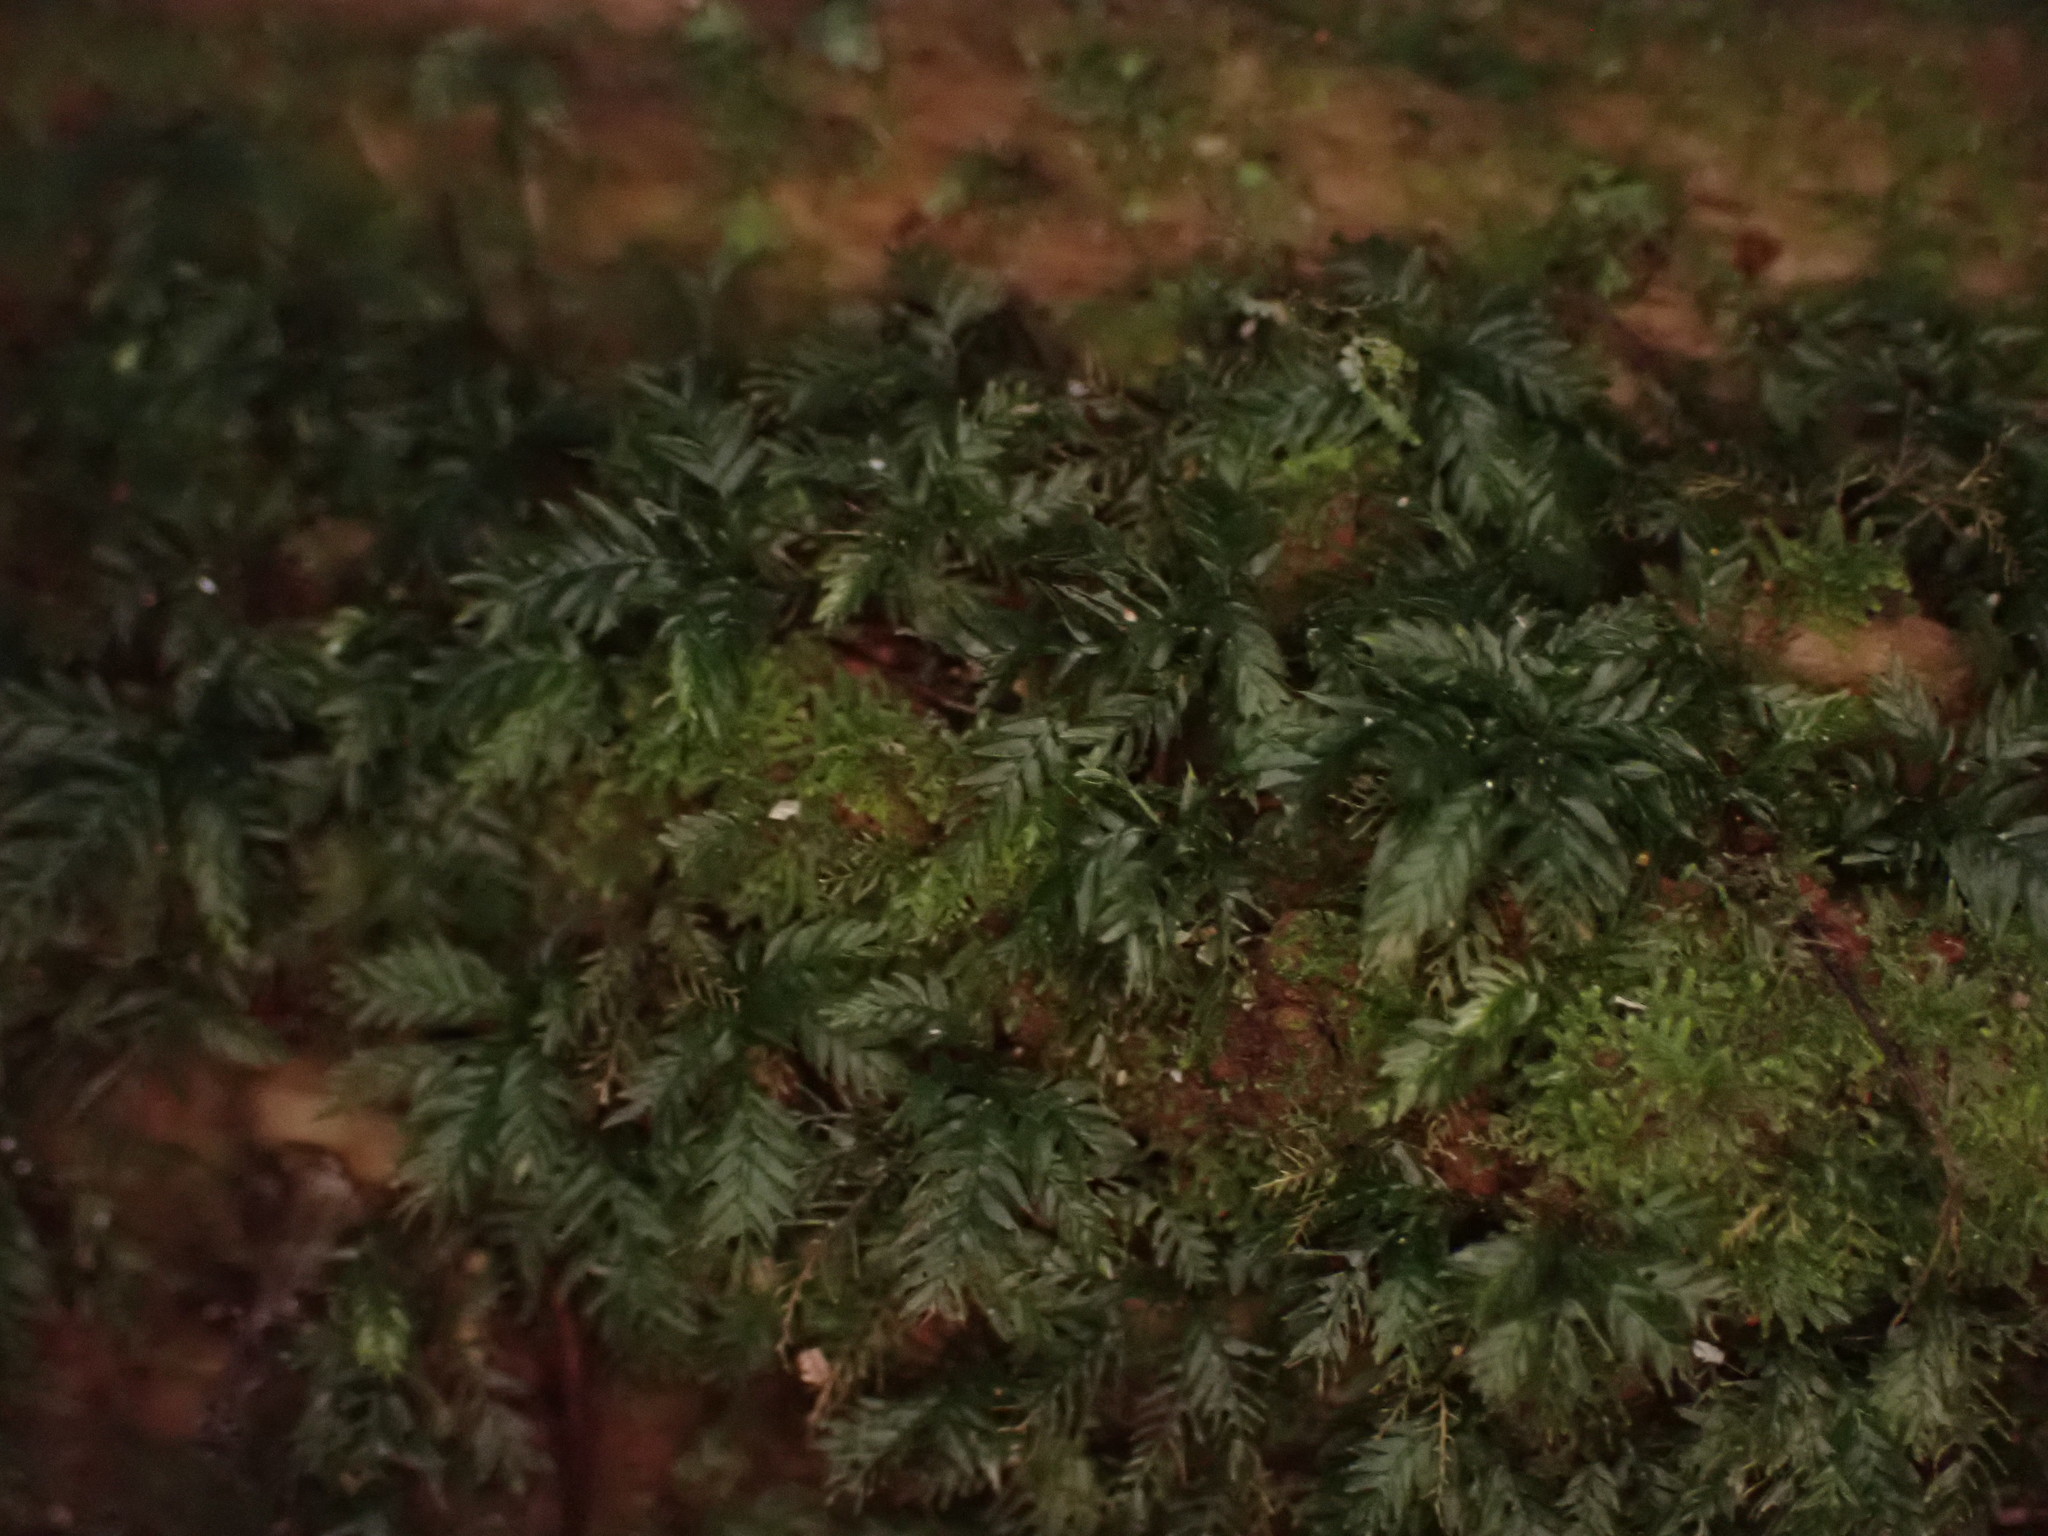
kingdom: Plantae
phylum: Bryophyta
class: Bryopsida
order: Aulacomniales
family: Aulacomniaceae
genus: Hymenodontopsis
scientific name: Hymenodontopsis bifaria
